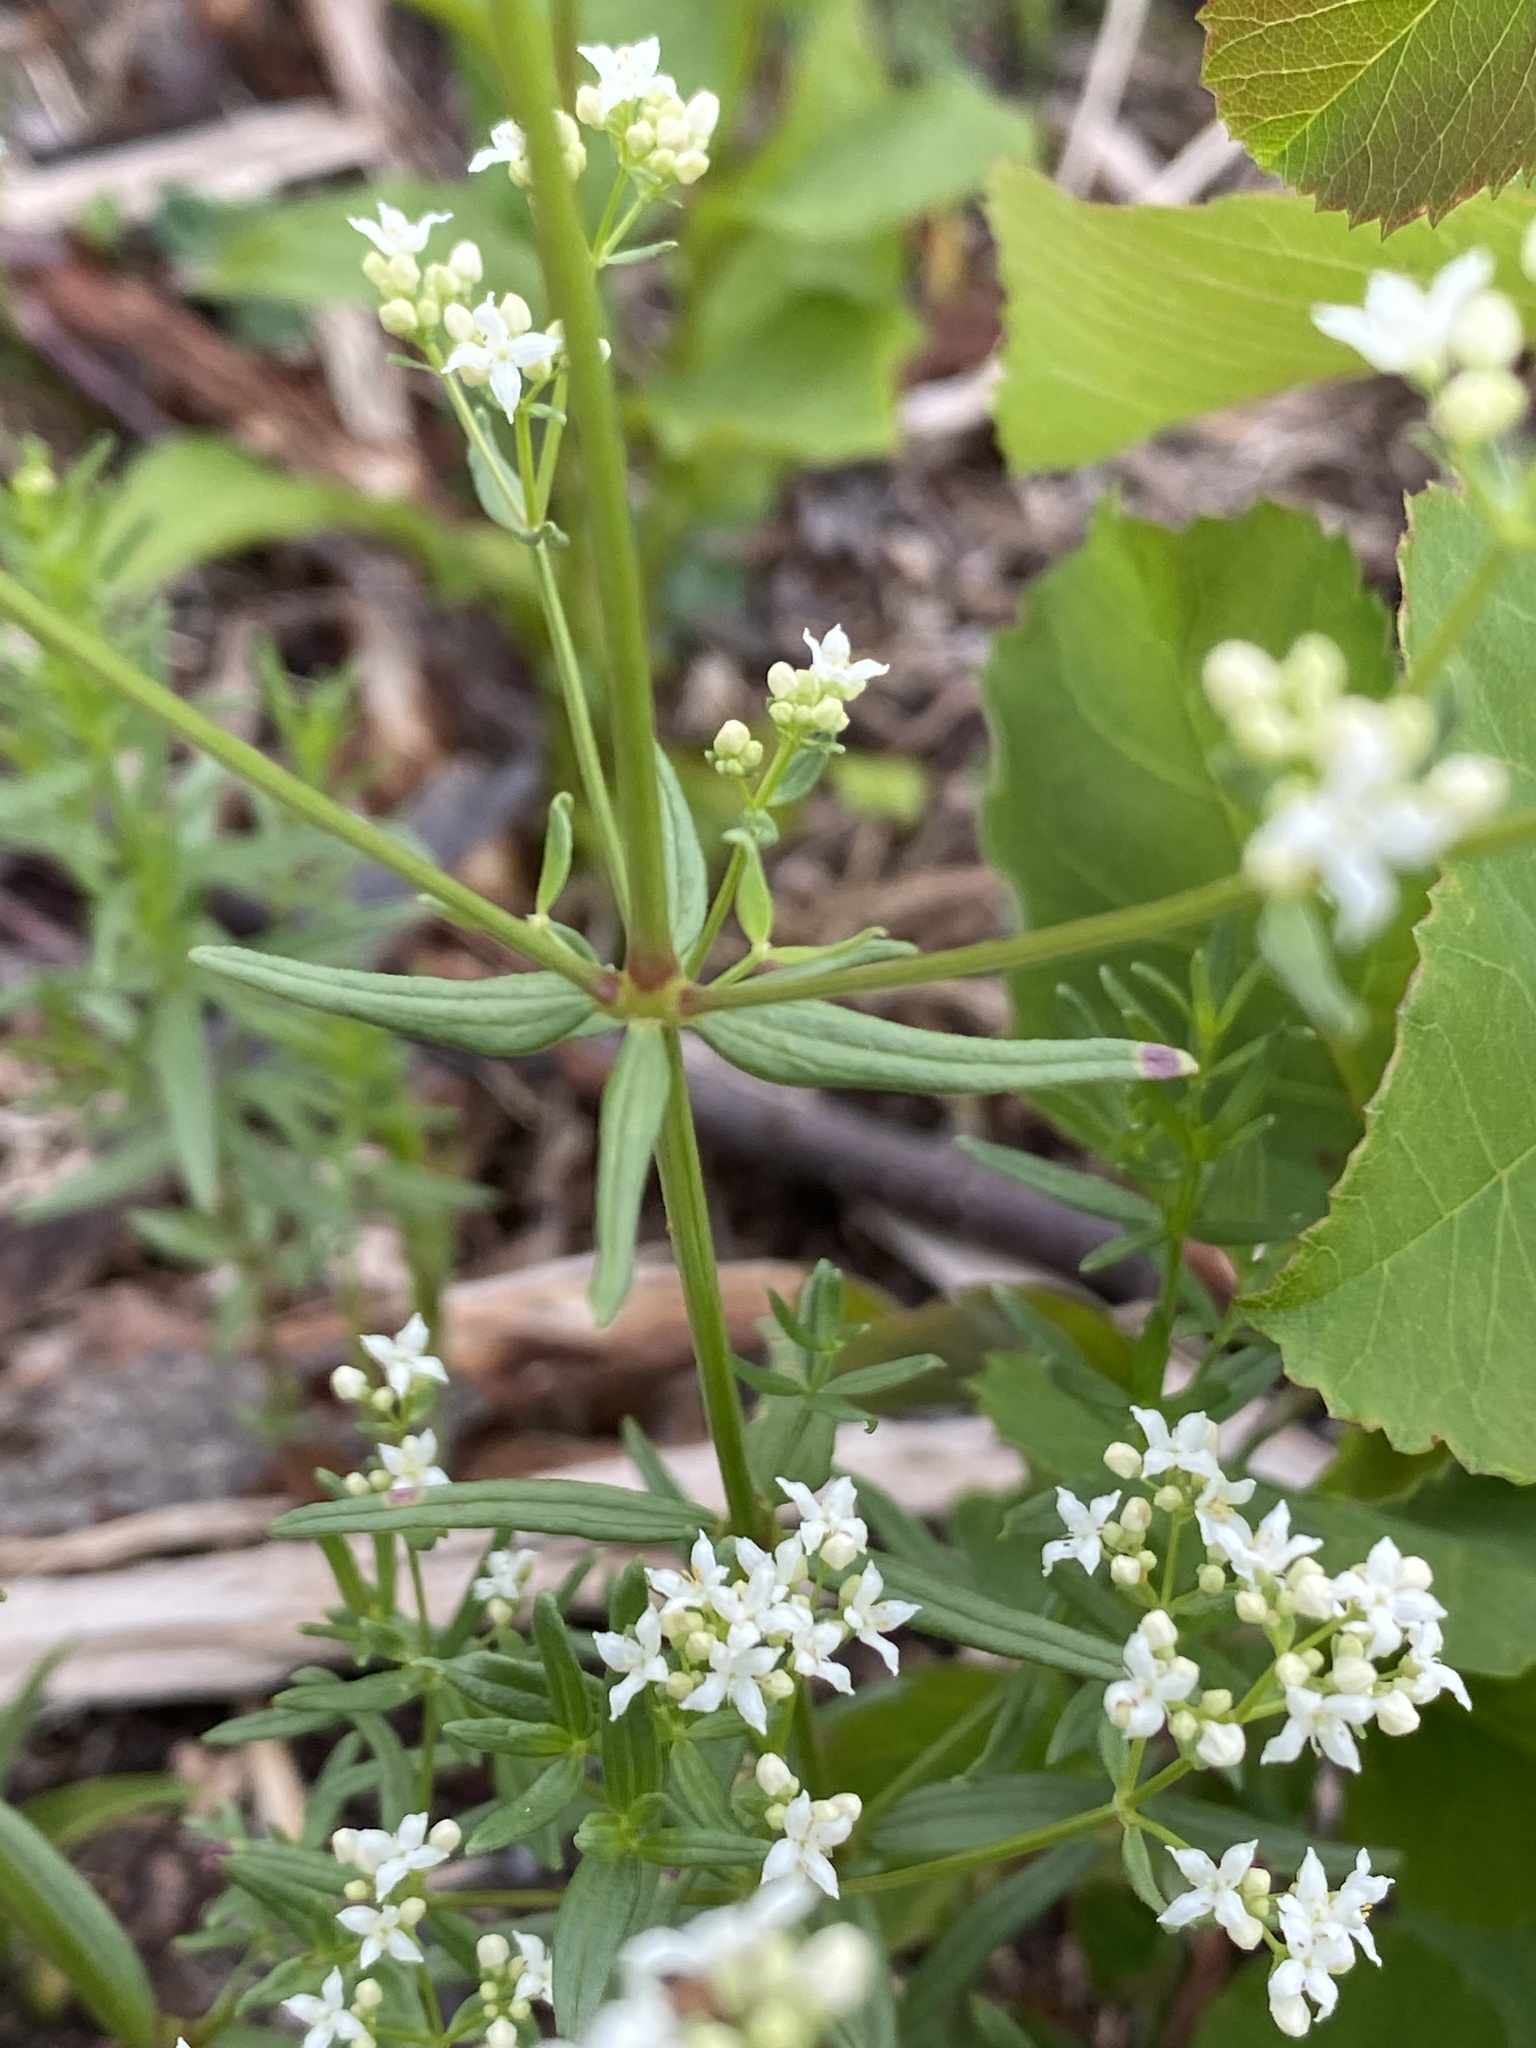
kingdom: Plantae
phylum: Tracheophyta
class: Magnoliopsida
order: Gentianales
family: Rubiaceae
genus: Galium
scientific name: Galium boreale
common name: Northern bedstraw
